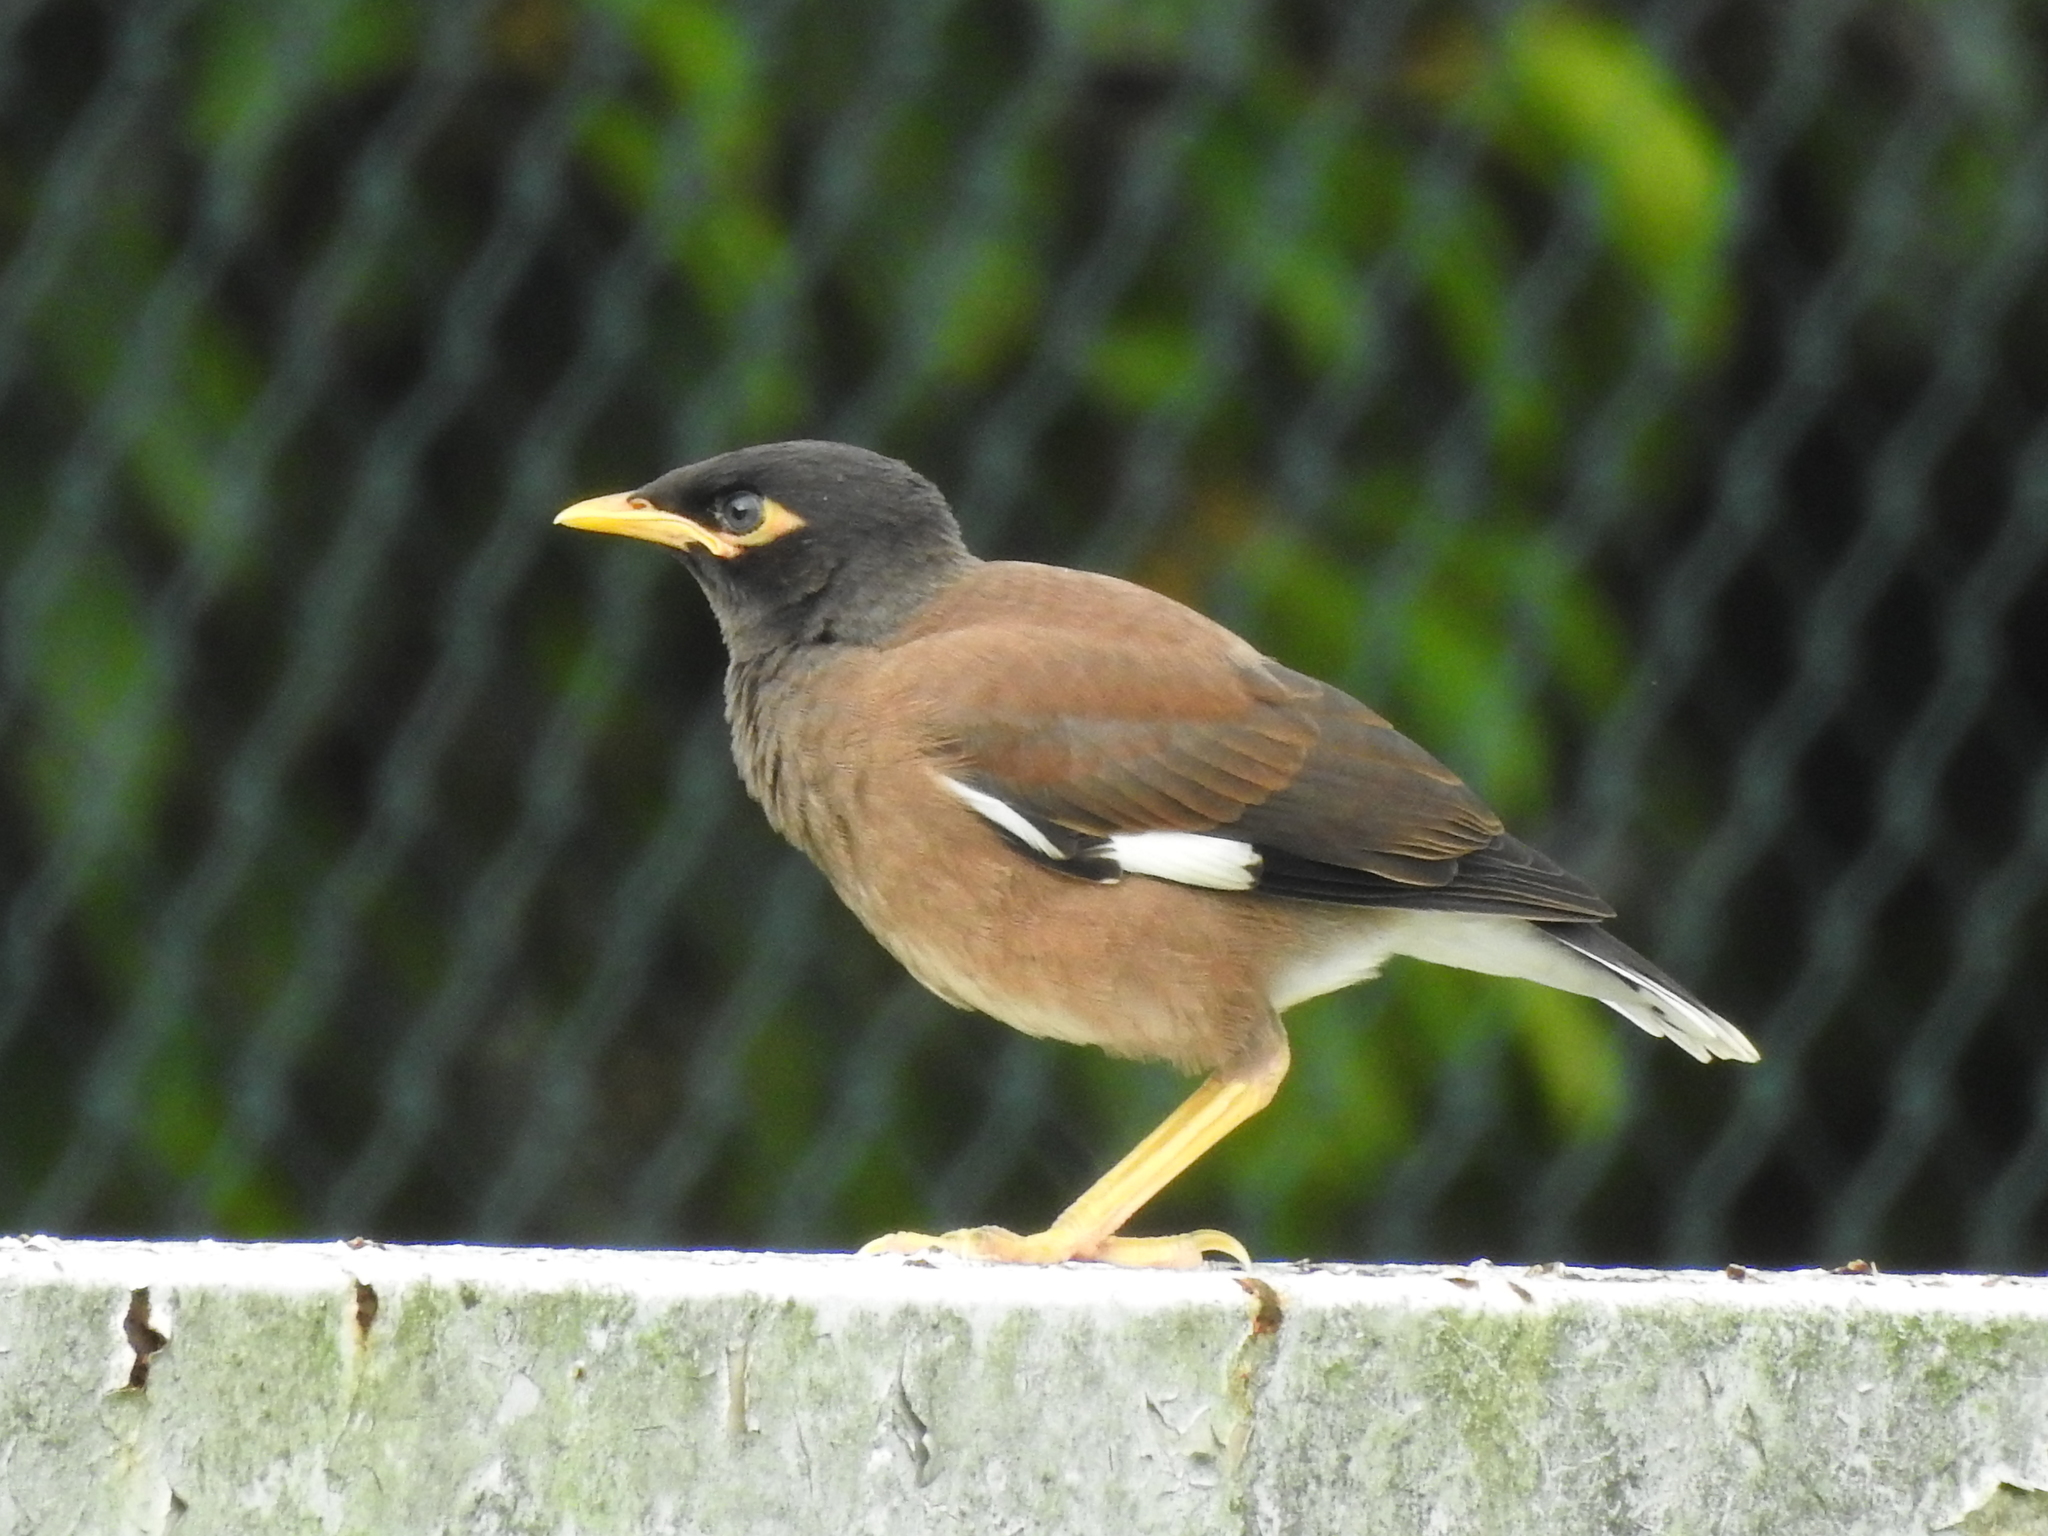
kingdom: Animalia
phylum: Chordata
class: Aves
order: Passeriformes
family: Sturnidae
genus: Acridotheres
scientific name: Acridotheres tristis
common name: Common myna
